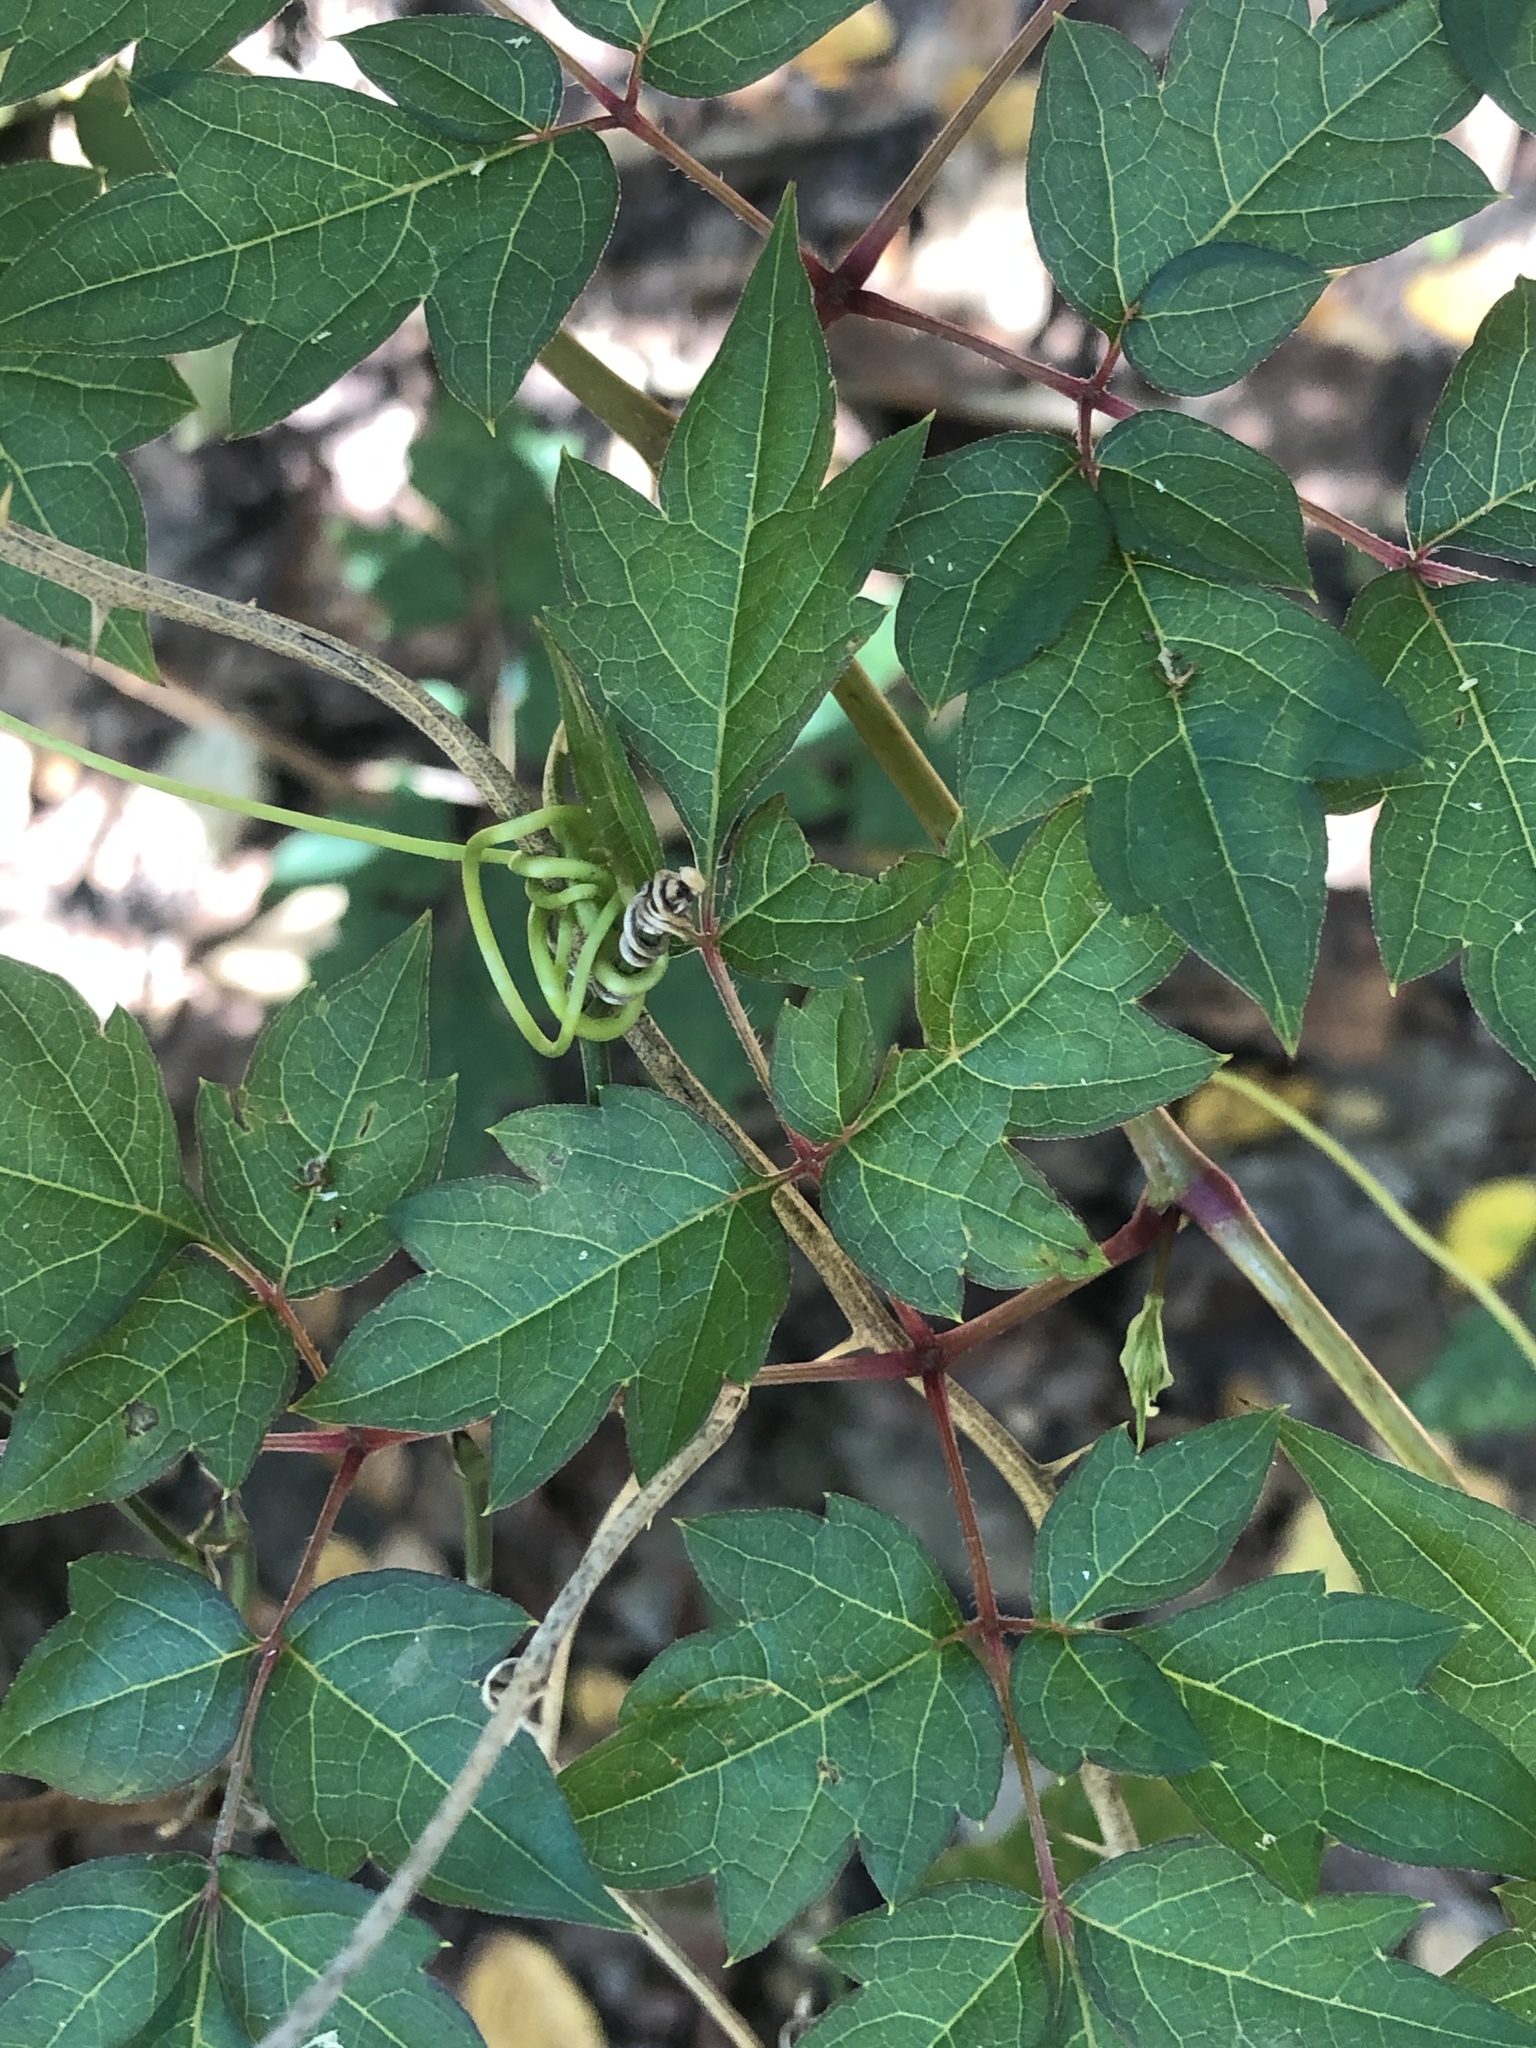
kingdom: Plantae
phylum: Tracheophyta
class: Magnoliopsida
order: Vitales
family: Vitaceae
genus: Nekemias
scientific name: Nekemias arborea
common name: Peppervine
